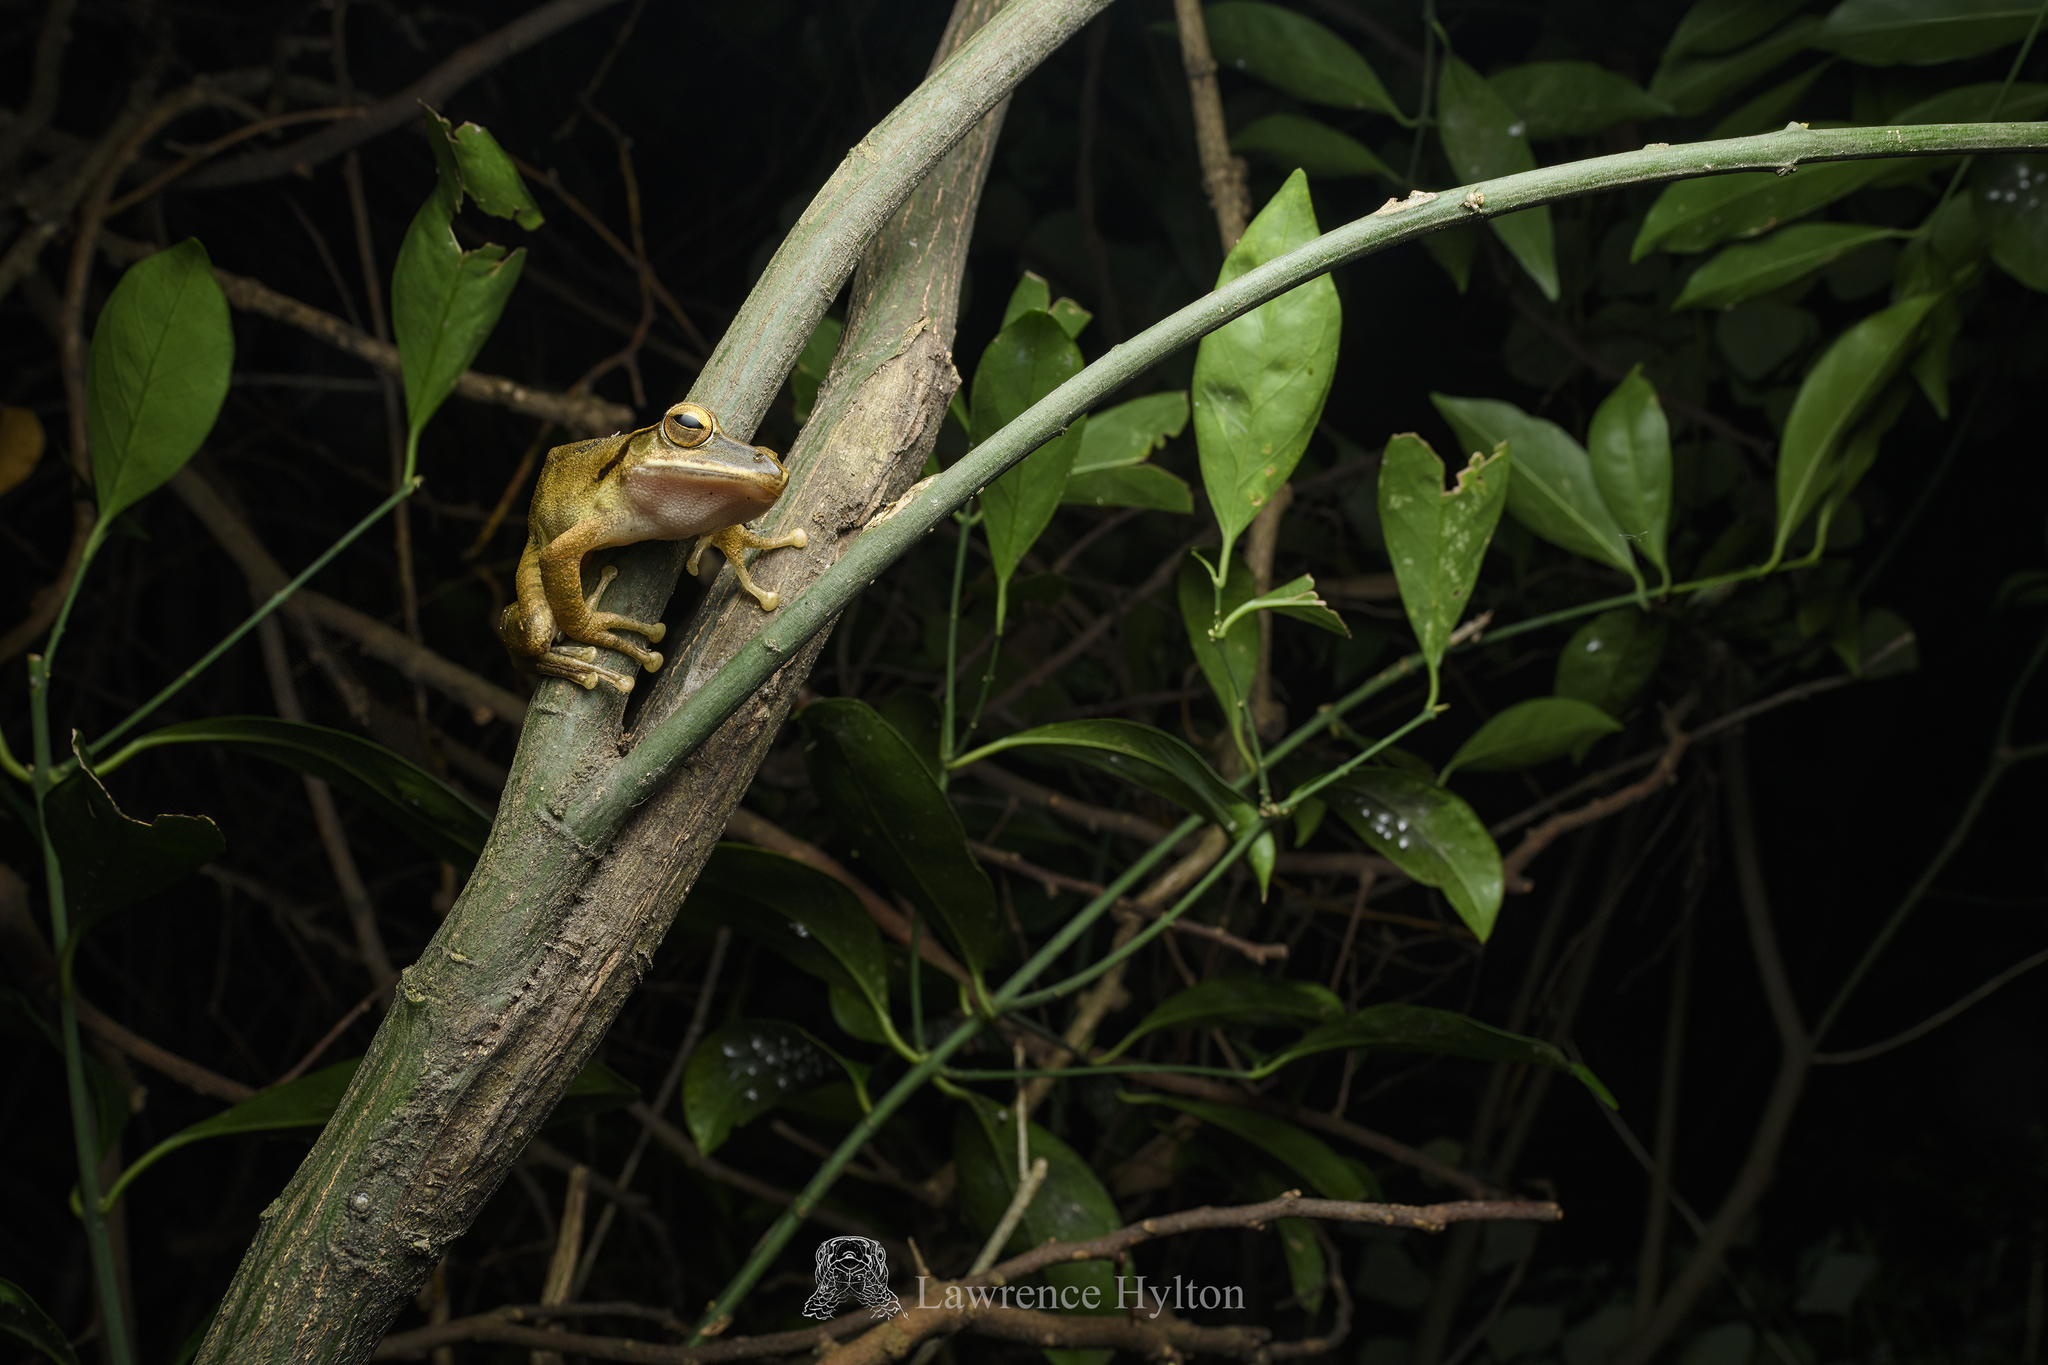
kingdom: Animalia
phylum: Chordata
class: Amphibia
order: Anura
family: Rhacophoridae
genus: Polypedates
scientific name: Polypedates megacephalus
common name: Hong kong whipping frog
